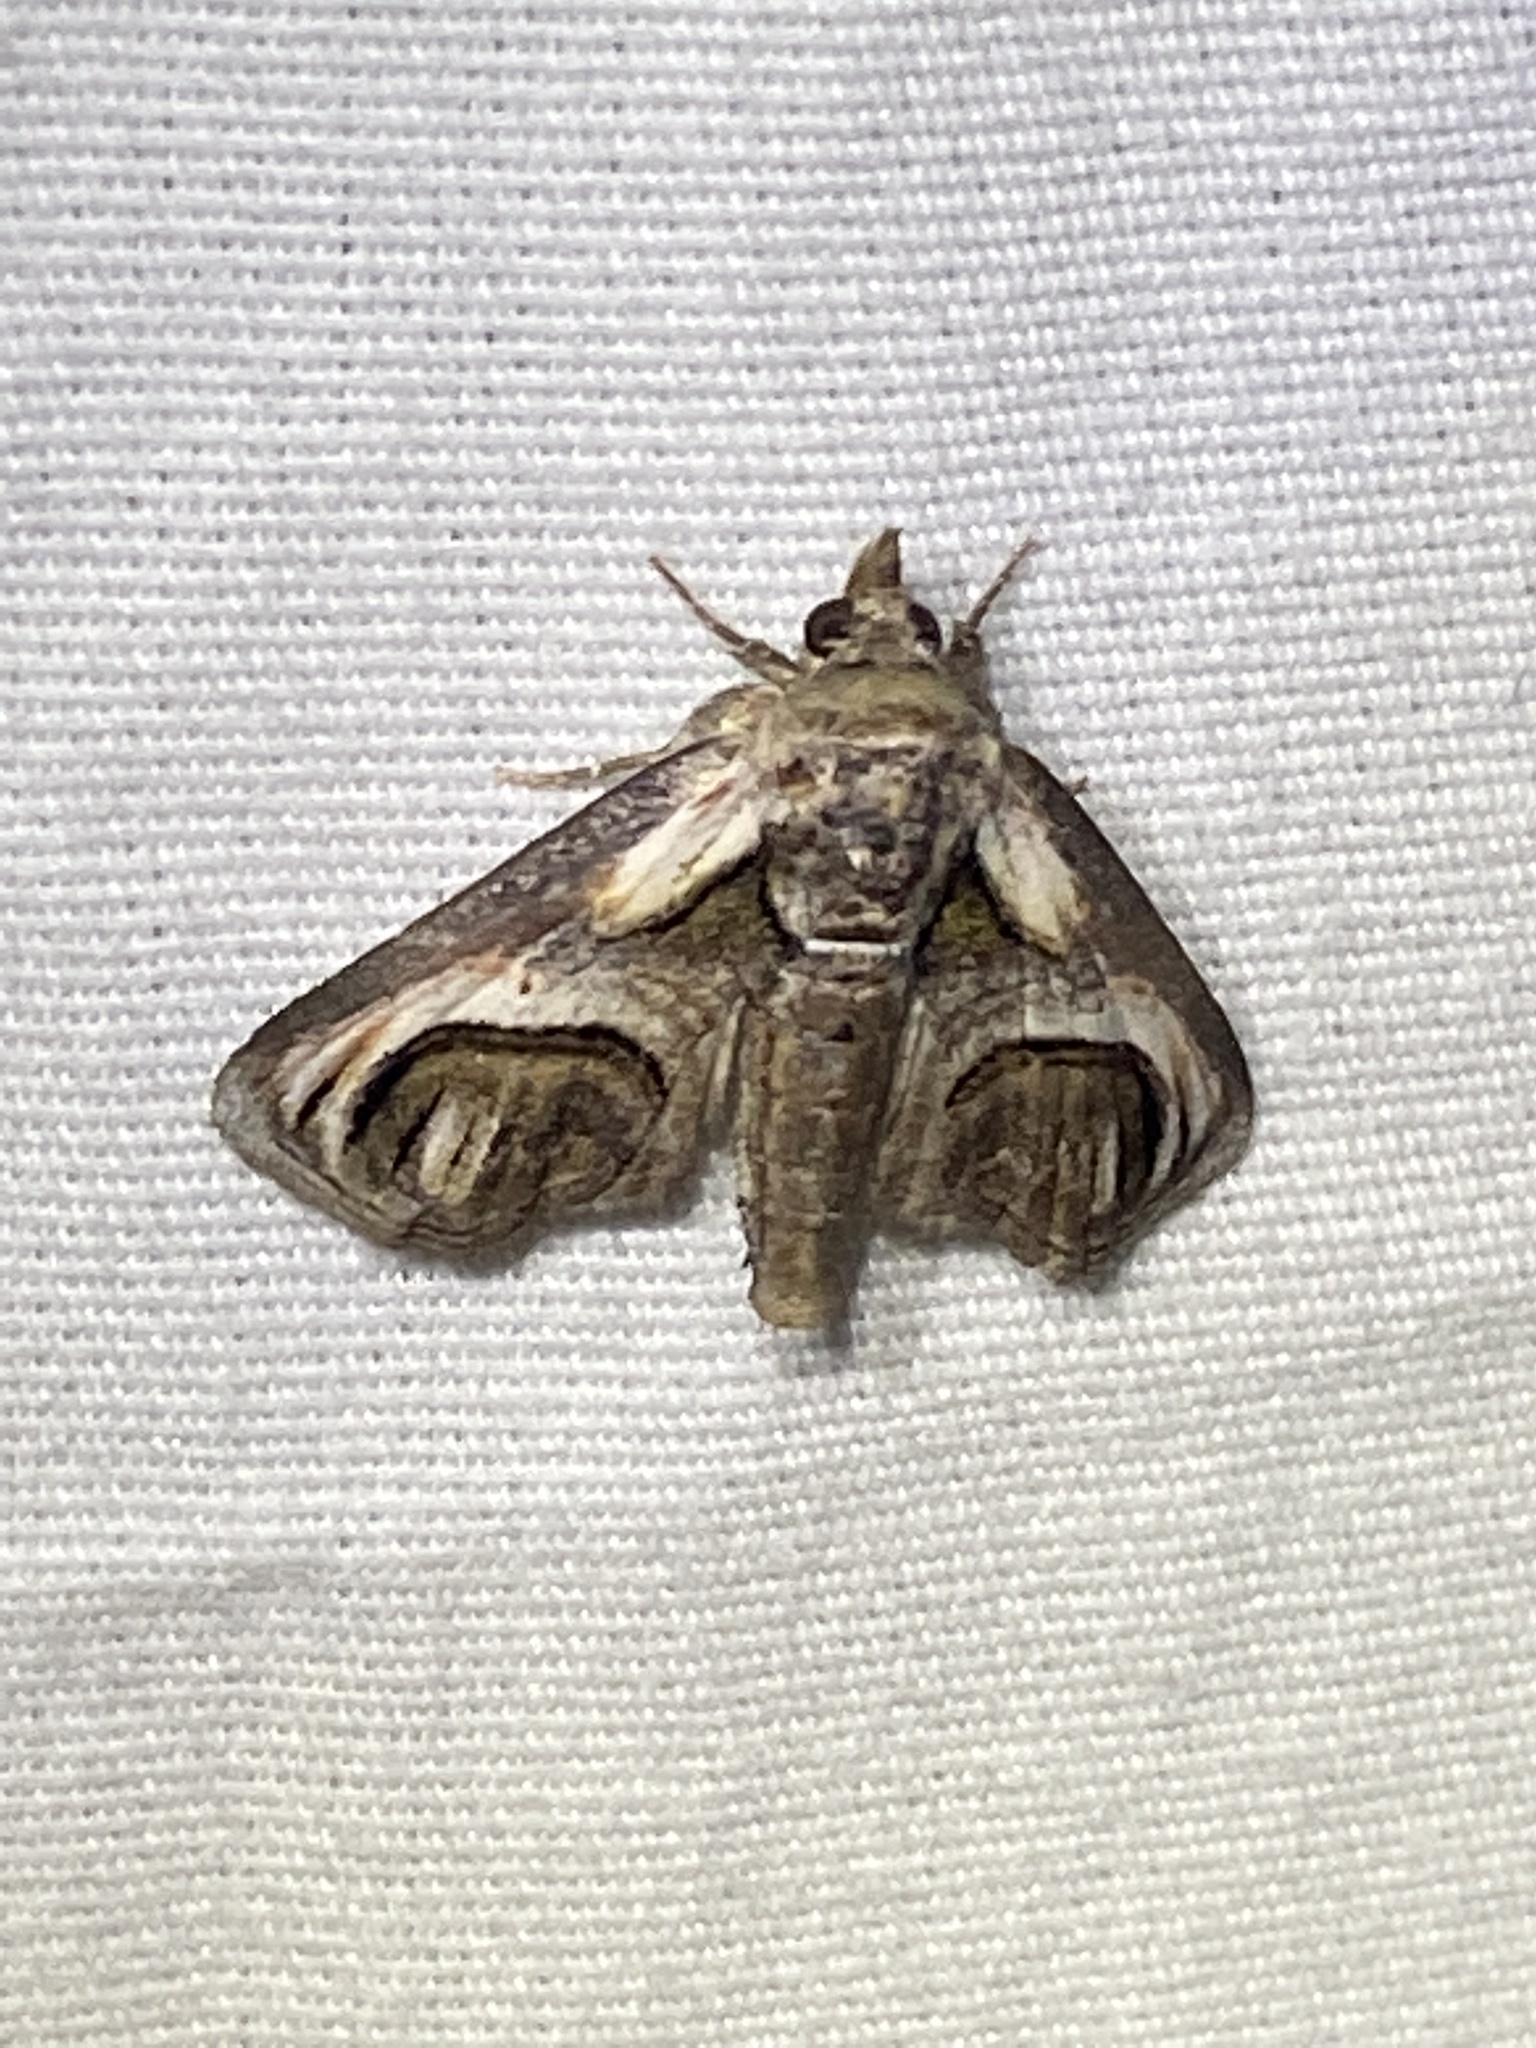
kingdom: Animalia
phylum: Arthropoda
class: Insecta
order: Lepidoptera
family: Euteliidae
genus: Paectes
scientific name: Paectes oculatrix
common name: Eyed paectes moth
